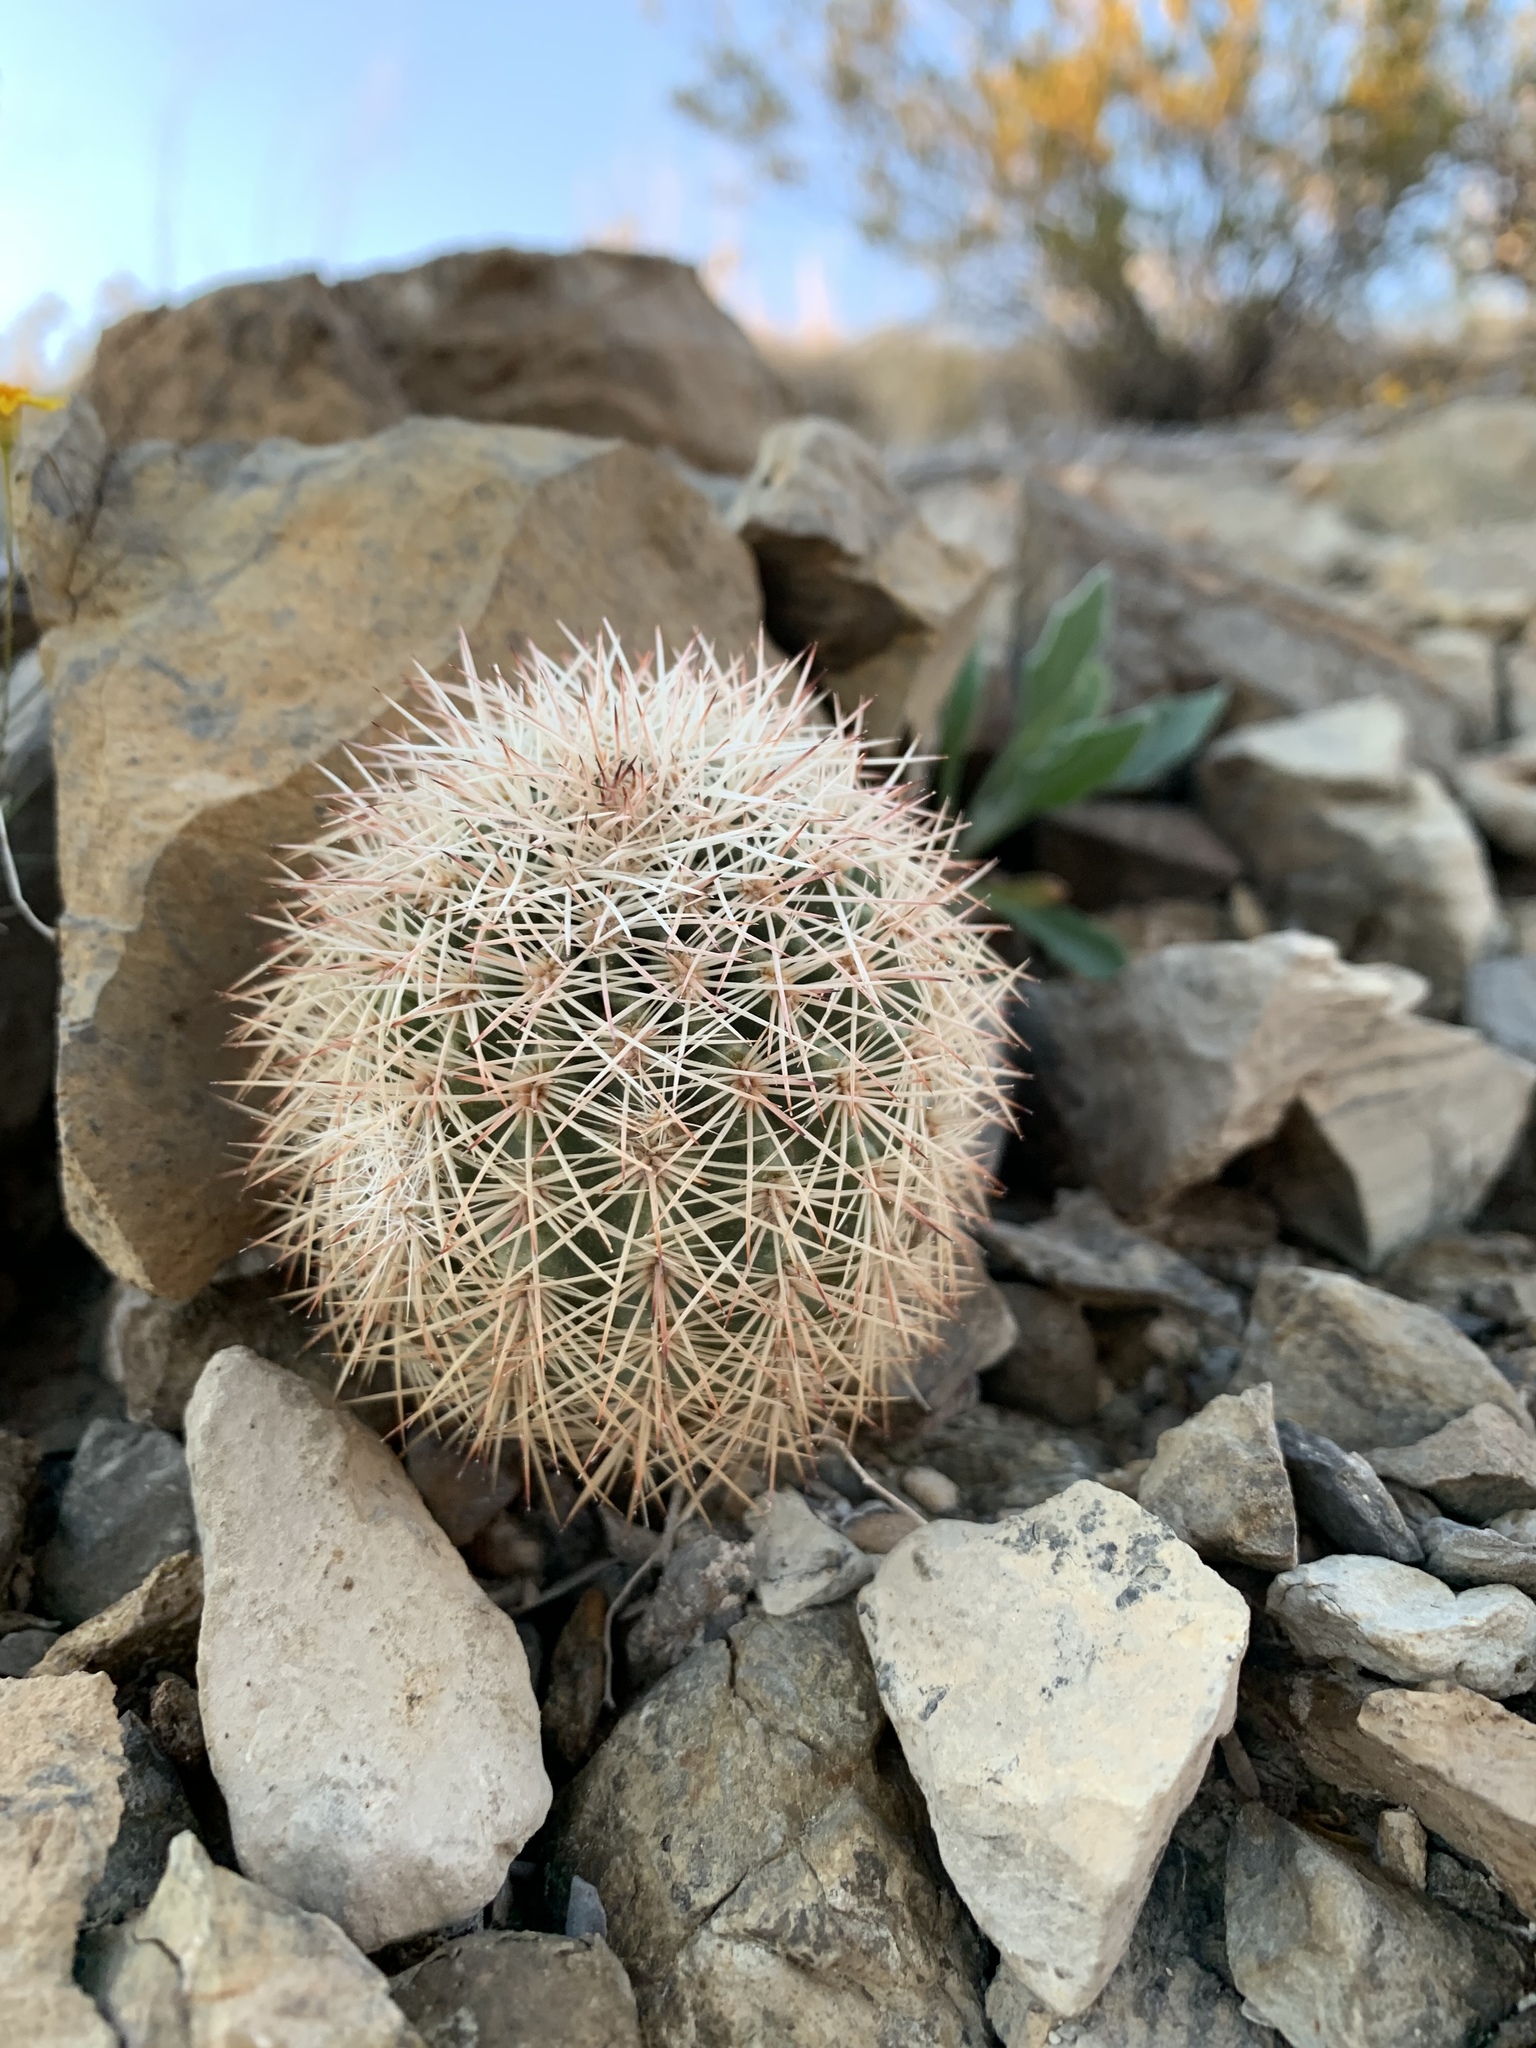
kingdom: Plantae
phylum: Tracheophyta
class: Magnoliopsida
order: Caryophyllales
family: Cactaceae
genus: Echinocereus
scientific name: Echinocereus dasyacanthus
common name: Spiny hedgehog cactus
